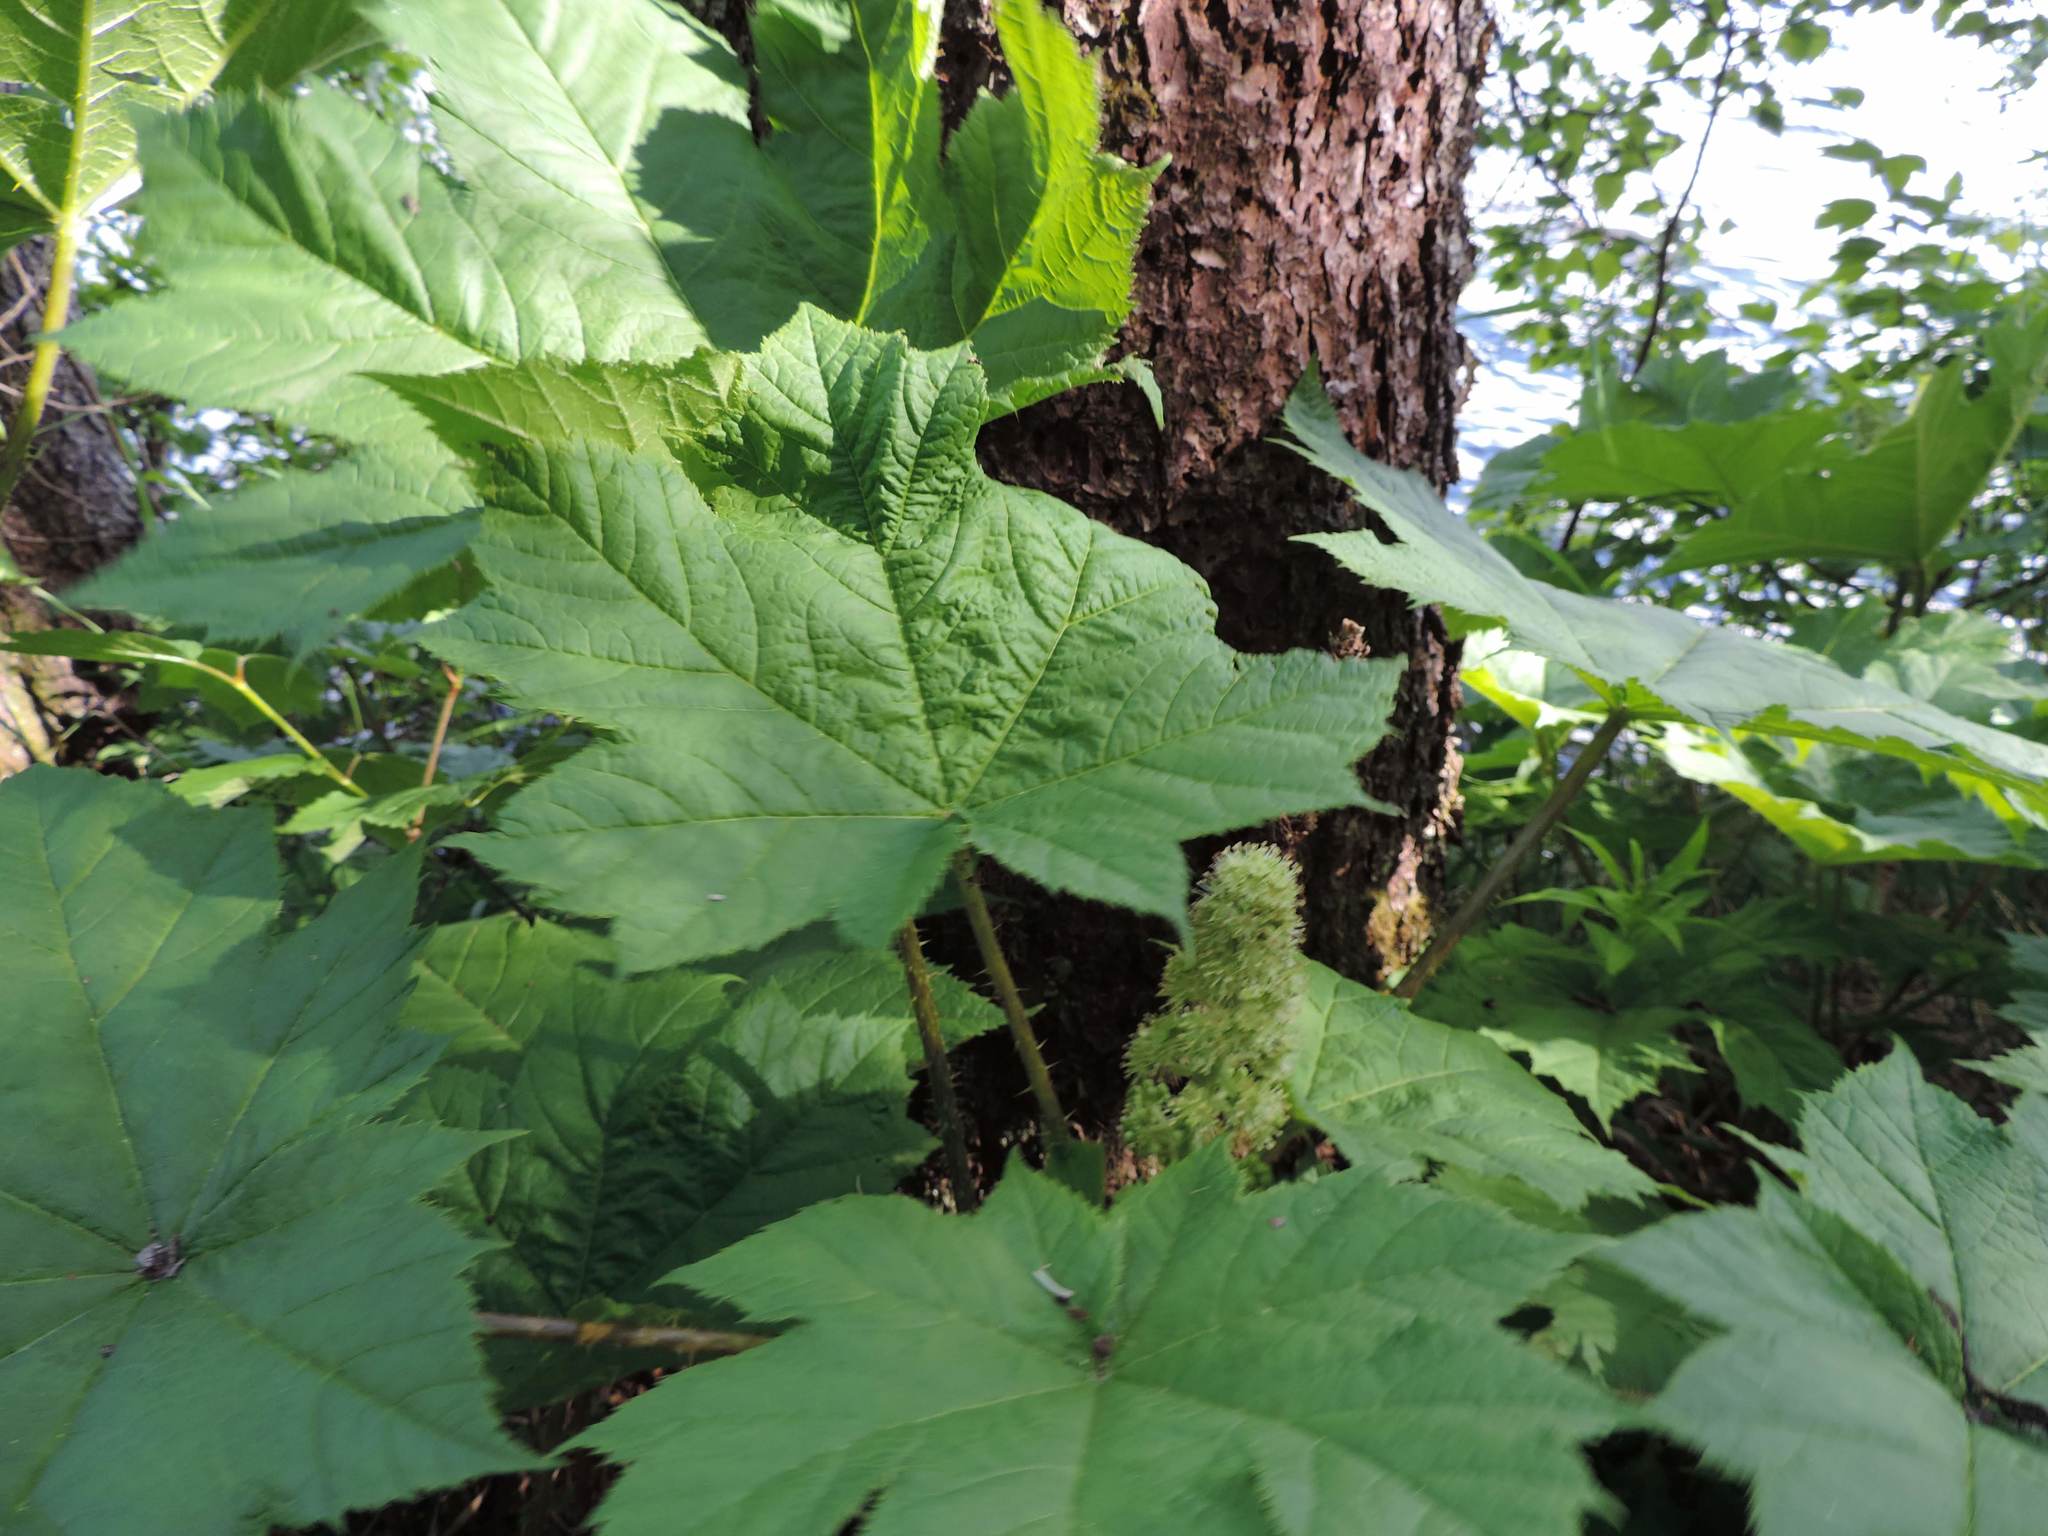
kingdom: Plantae
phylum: Tracheophyta
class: Magnoliopsida
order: Apiales
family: Araliaceae
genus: Oplopanax
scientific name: Oplopanax horridus
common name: Devil's walking-stick
